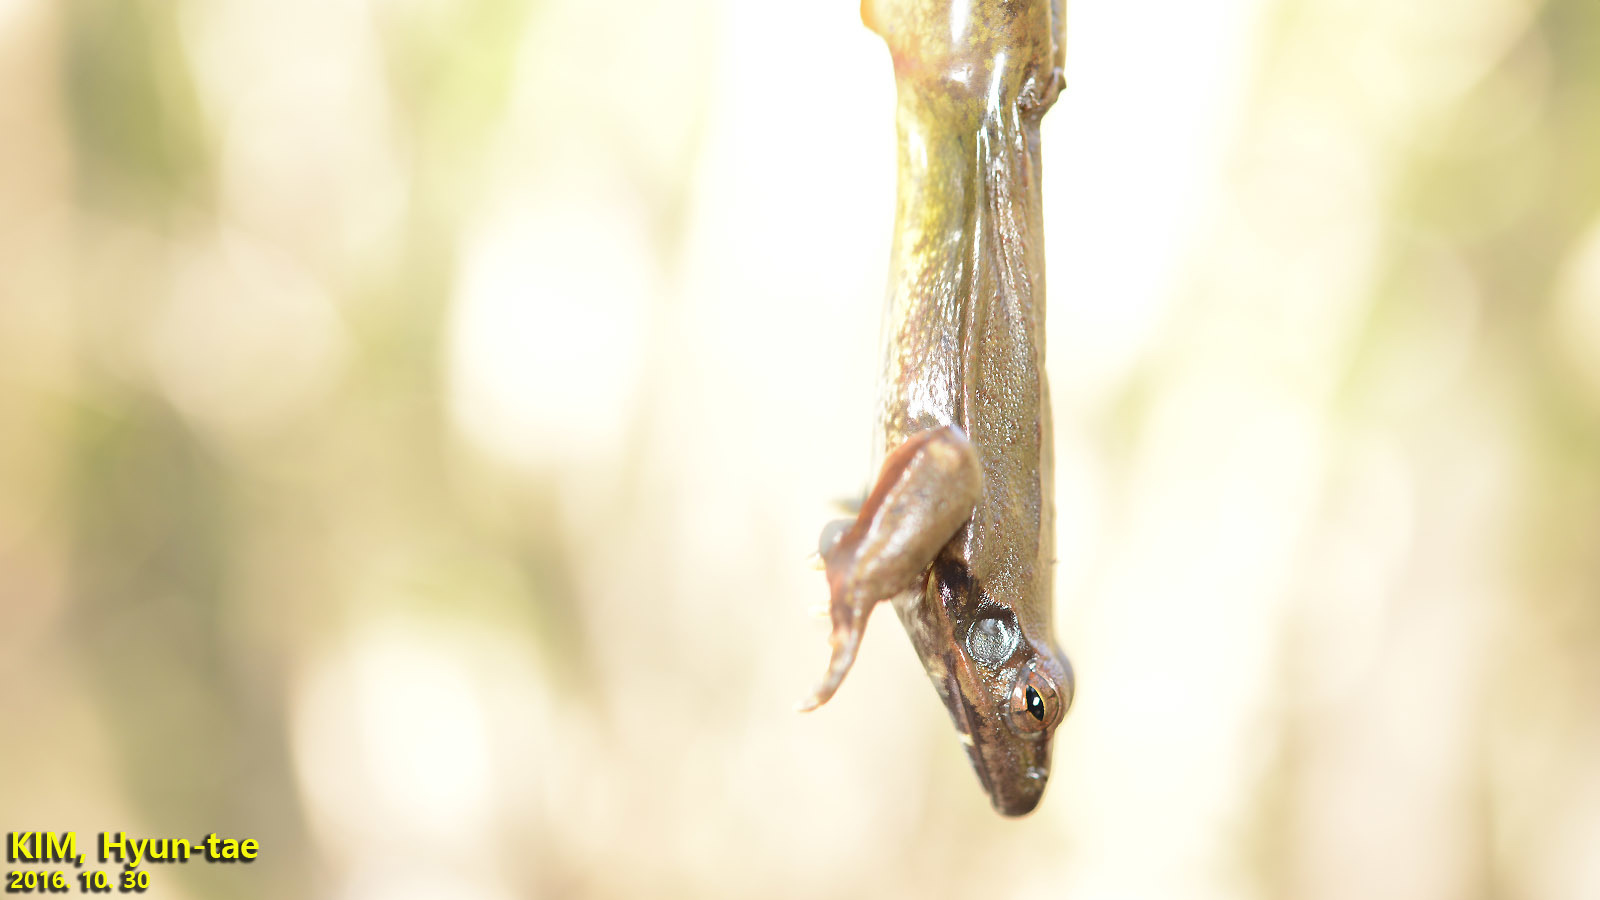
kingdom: Animalia
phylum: Chordata
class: Amphibia
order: Anura
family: Ranidae
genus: Rana
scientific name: Rana uenoi
